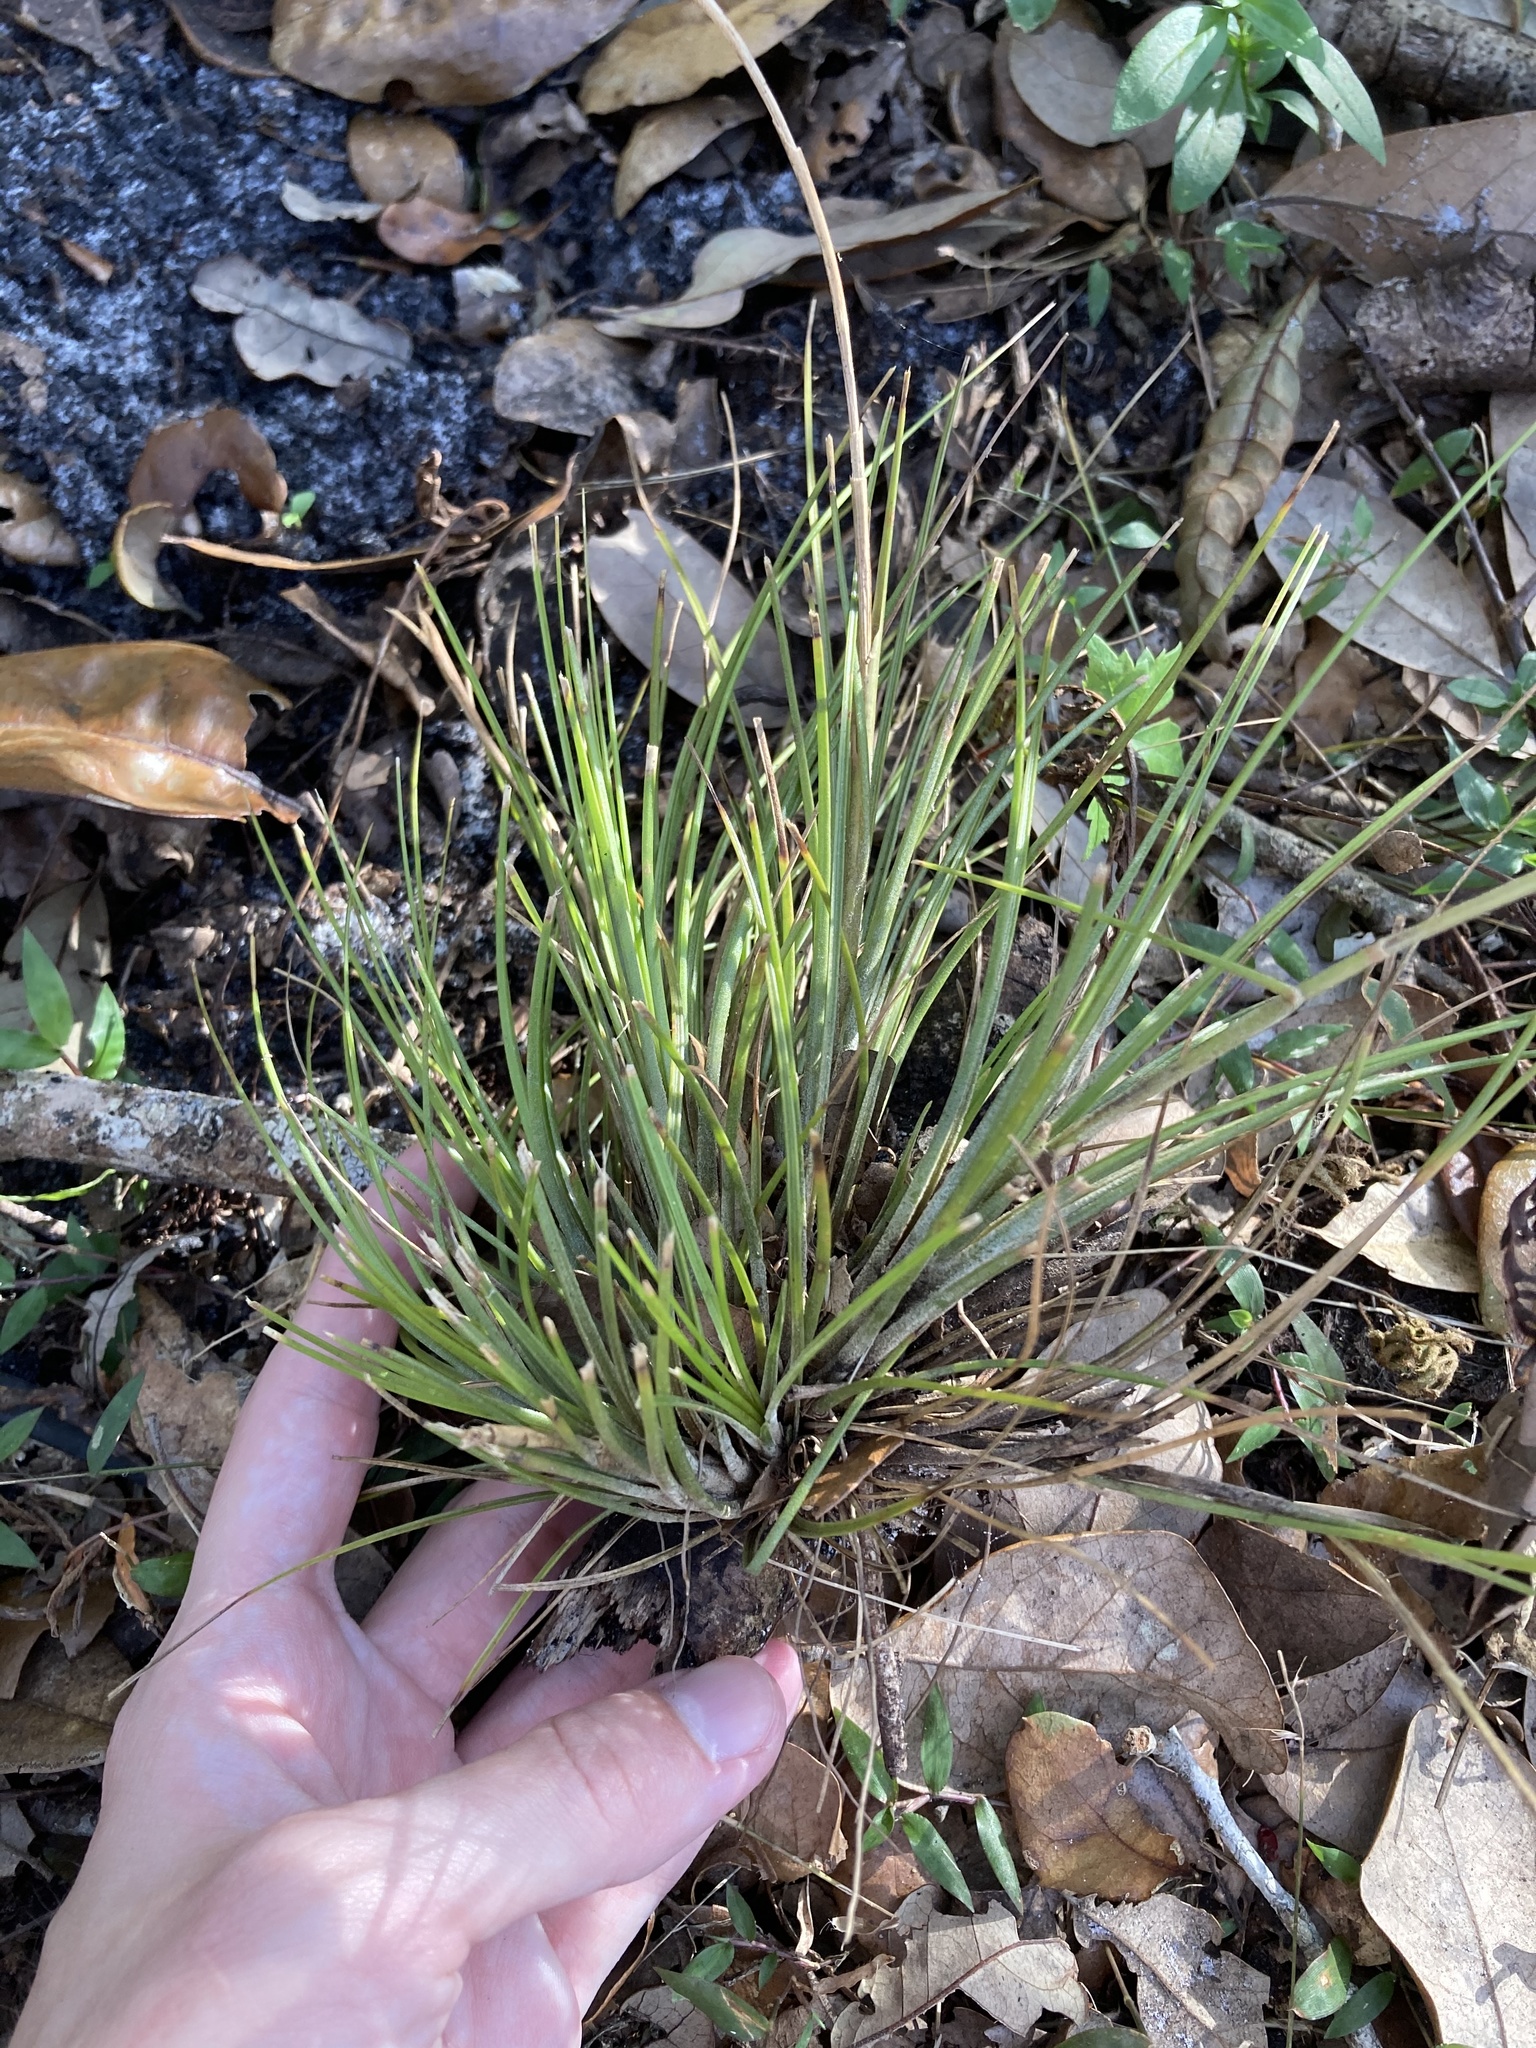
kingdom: Plantae
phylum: Tracheophyta
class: Liliopsida
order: Poales
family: Bromeliaceae
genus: Tillandsia
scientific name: Tillandsia setacea
